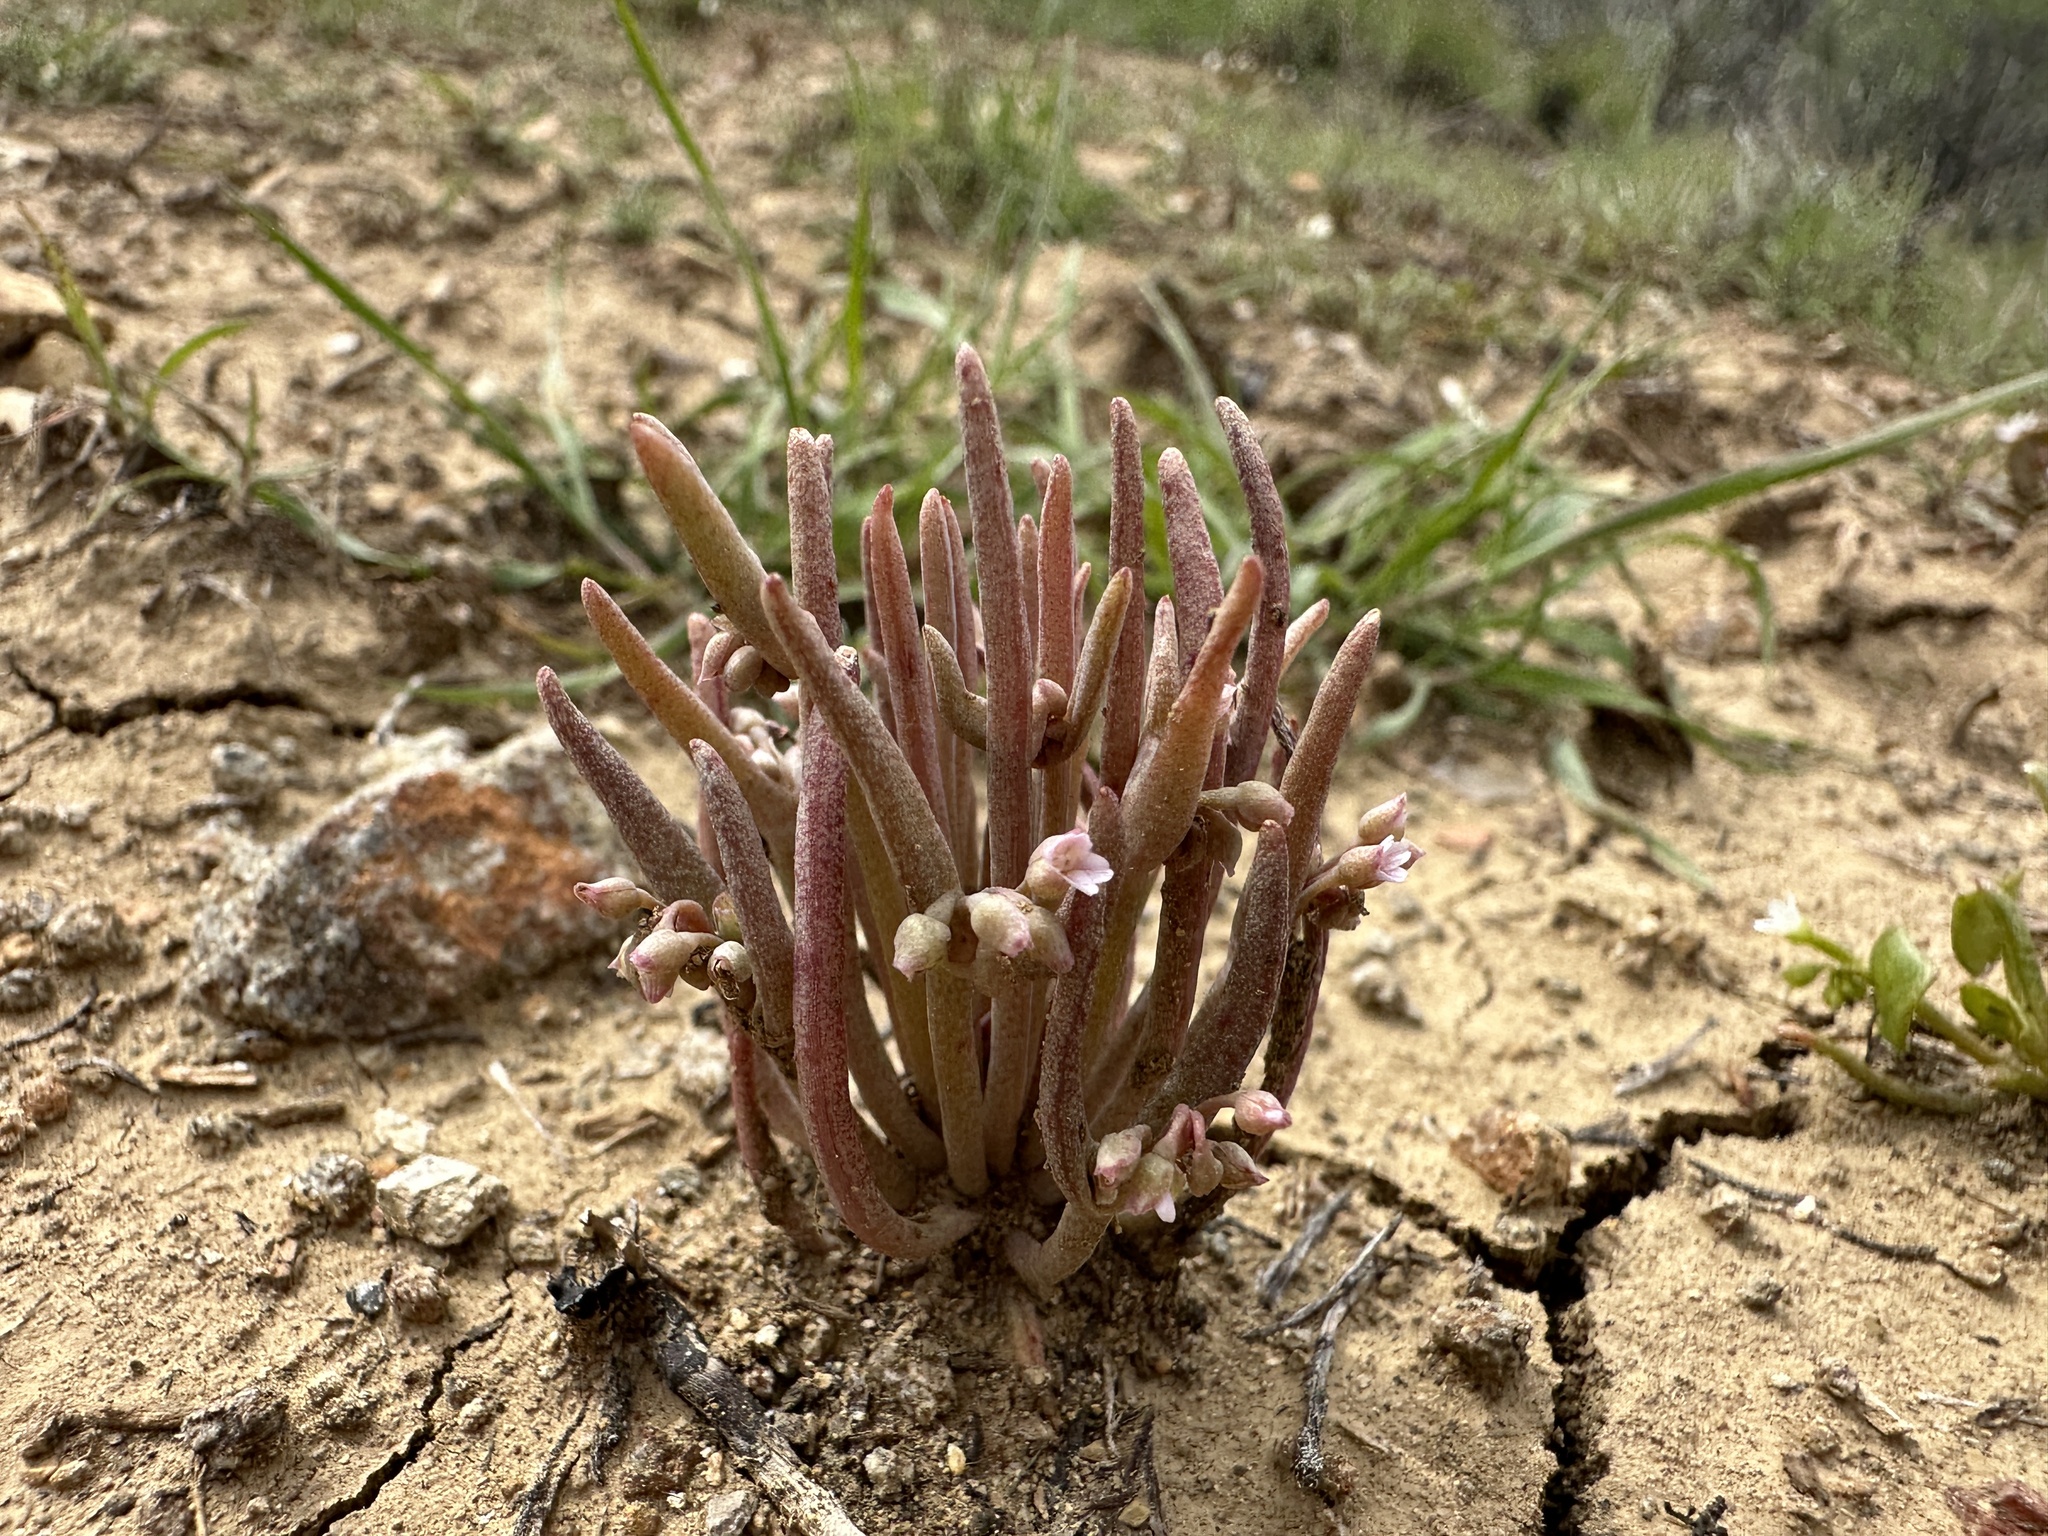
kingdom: Plantae
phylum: Tracheophyta
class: Magnoliopsida
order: Caryophyllales
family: Montiaceae
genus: Claytonia
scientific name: Claytonia exigua
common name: Pale spring beauty
